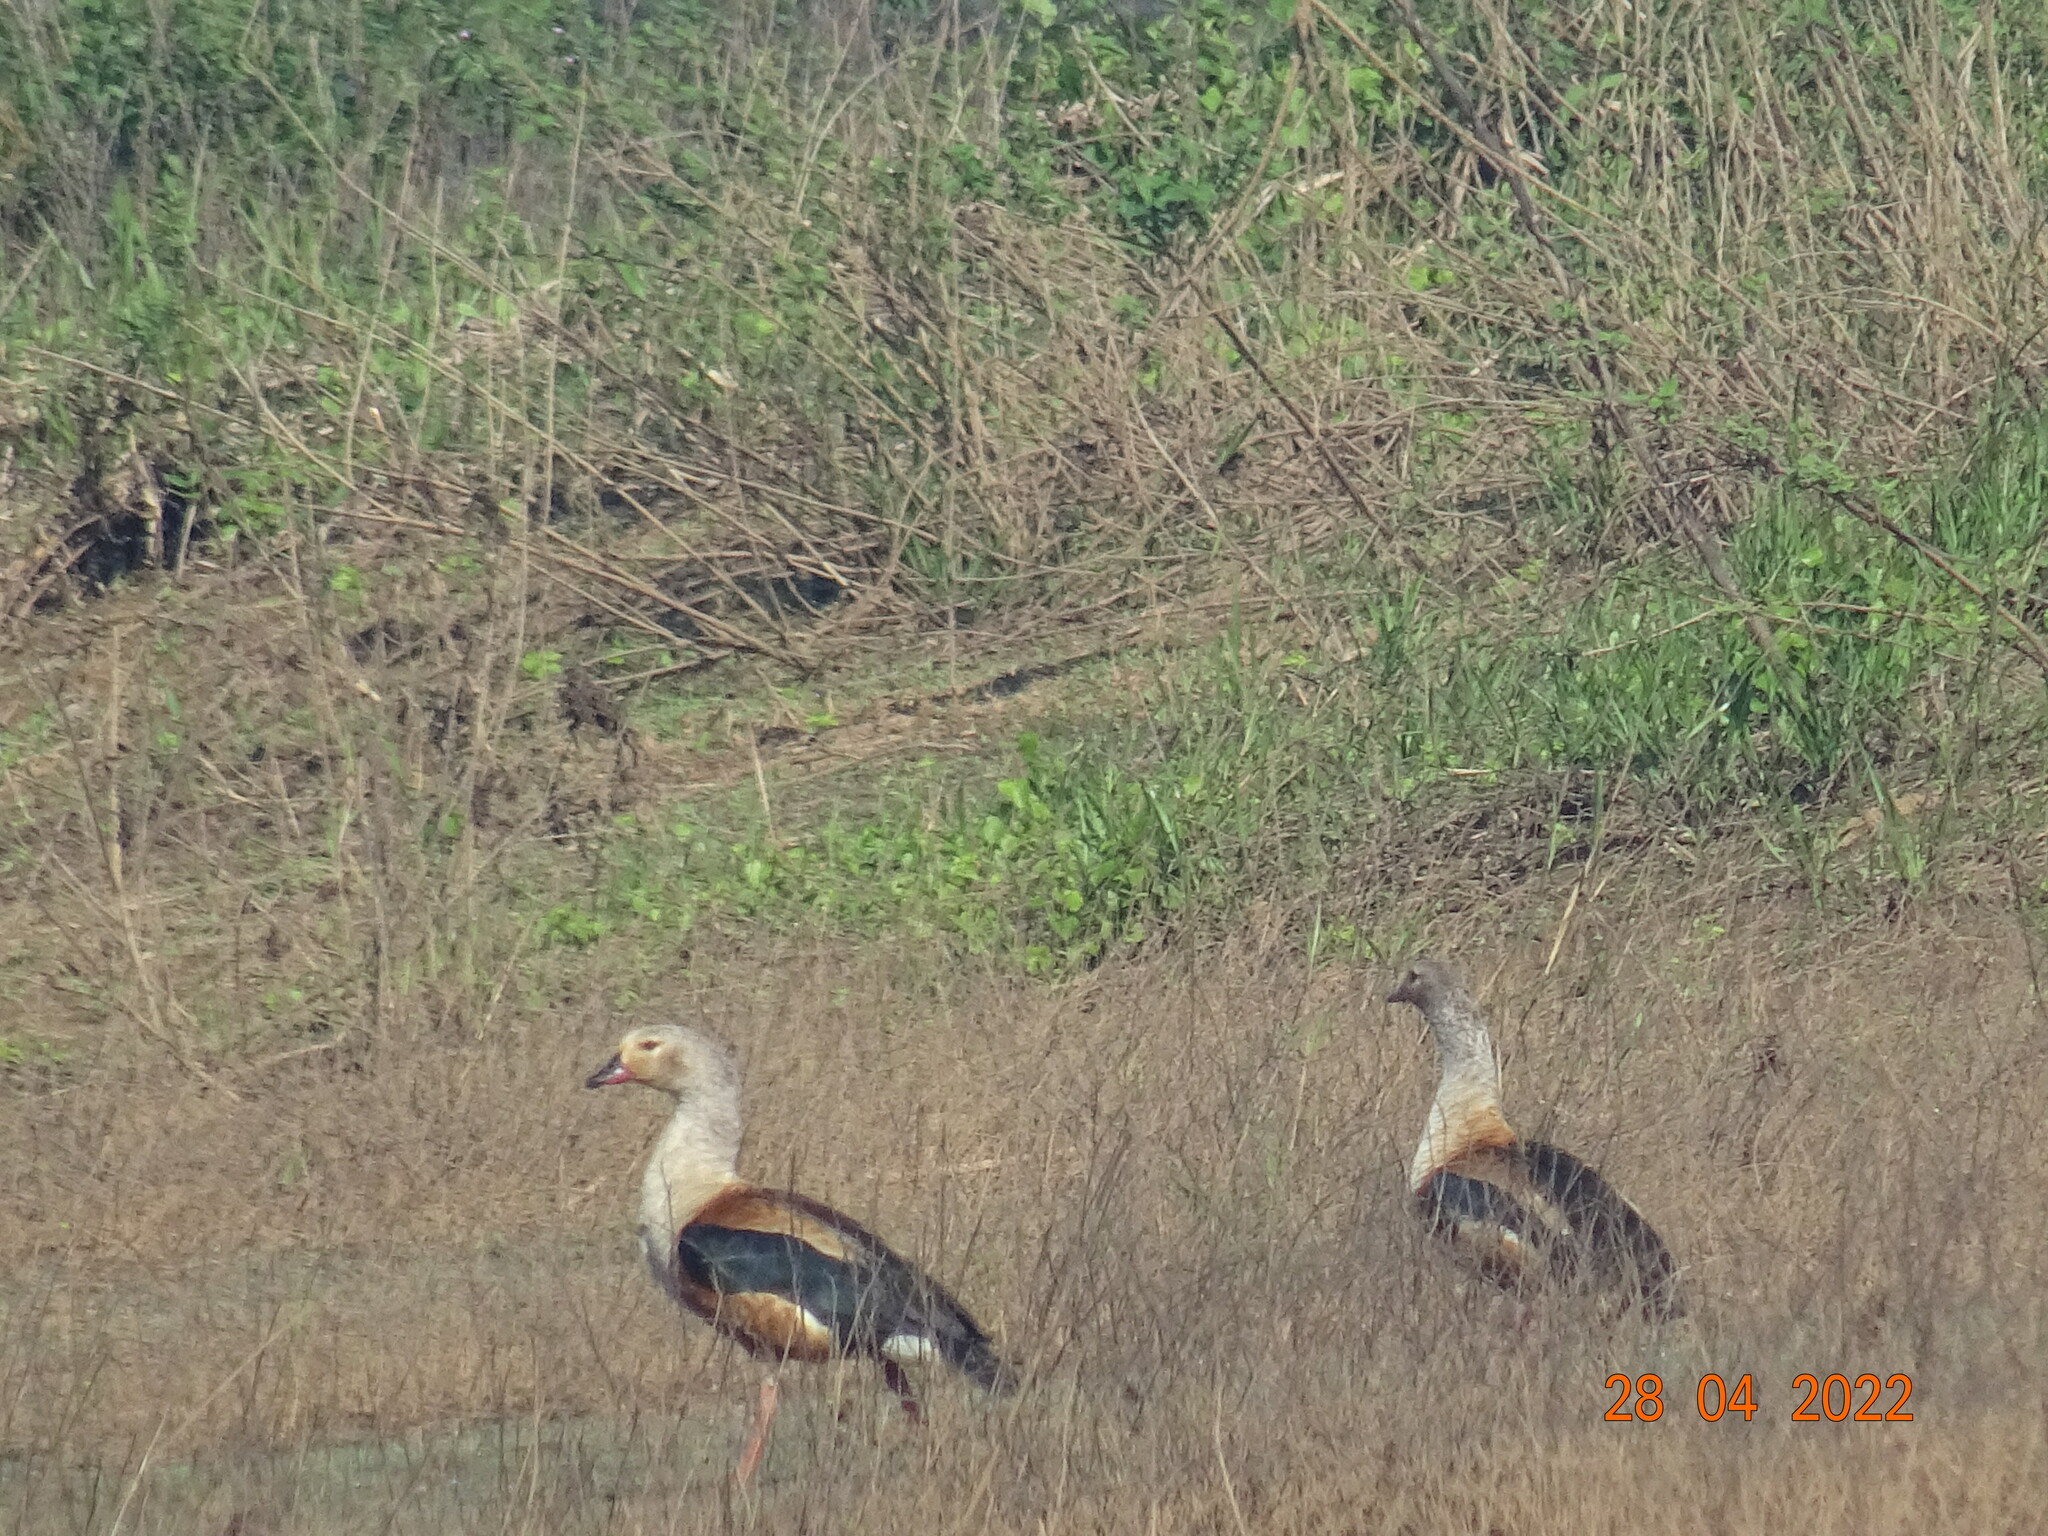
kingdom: Animalia
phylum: Chordata
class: Aves
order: Anseriformes
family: Anatidae
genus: Oressochen
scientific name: Oressochen jubatus
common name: Orinoco goose
